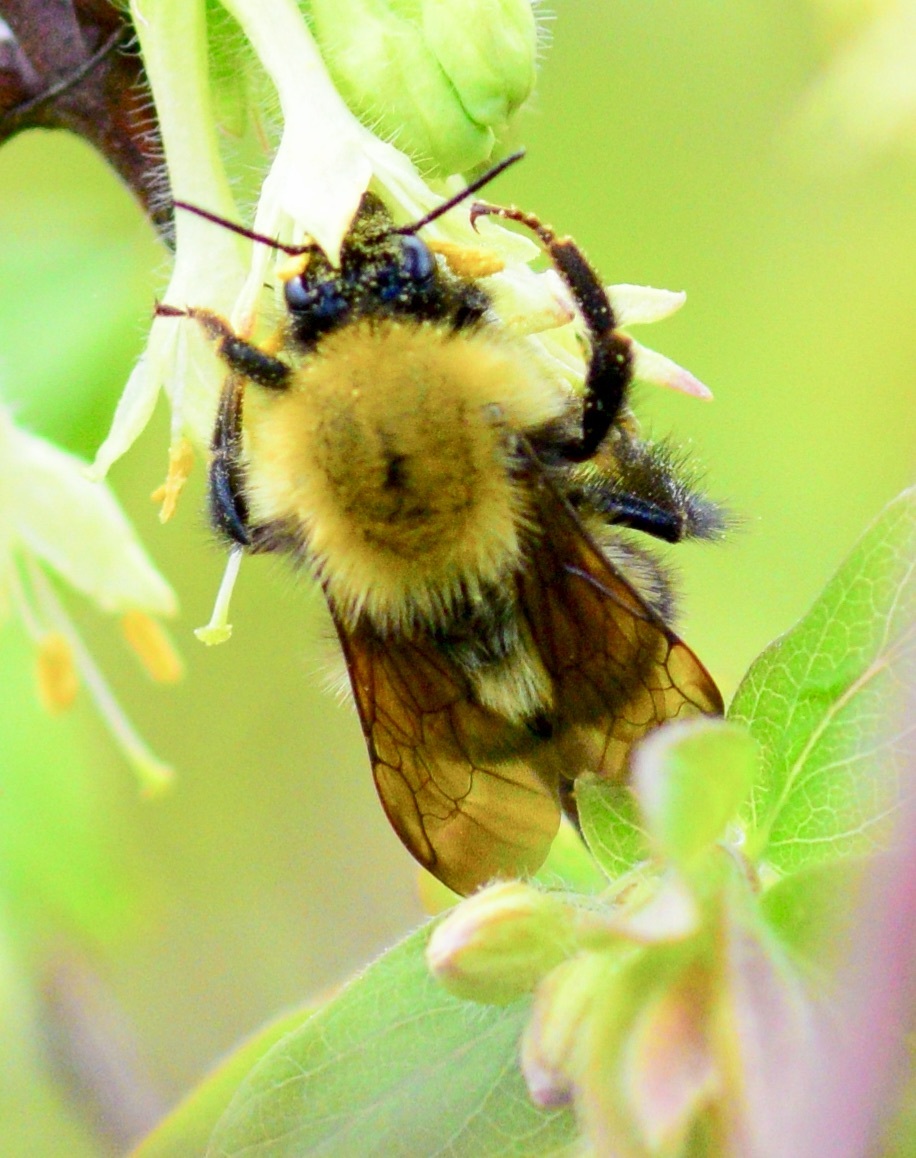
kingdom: Animalia
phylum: Arthropoda
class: Insecta
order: Hymenoptera
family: Apidae
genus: Bombus
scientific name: Bombus perplexus
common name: Confusing bumble bee
